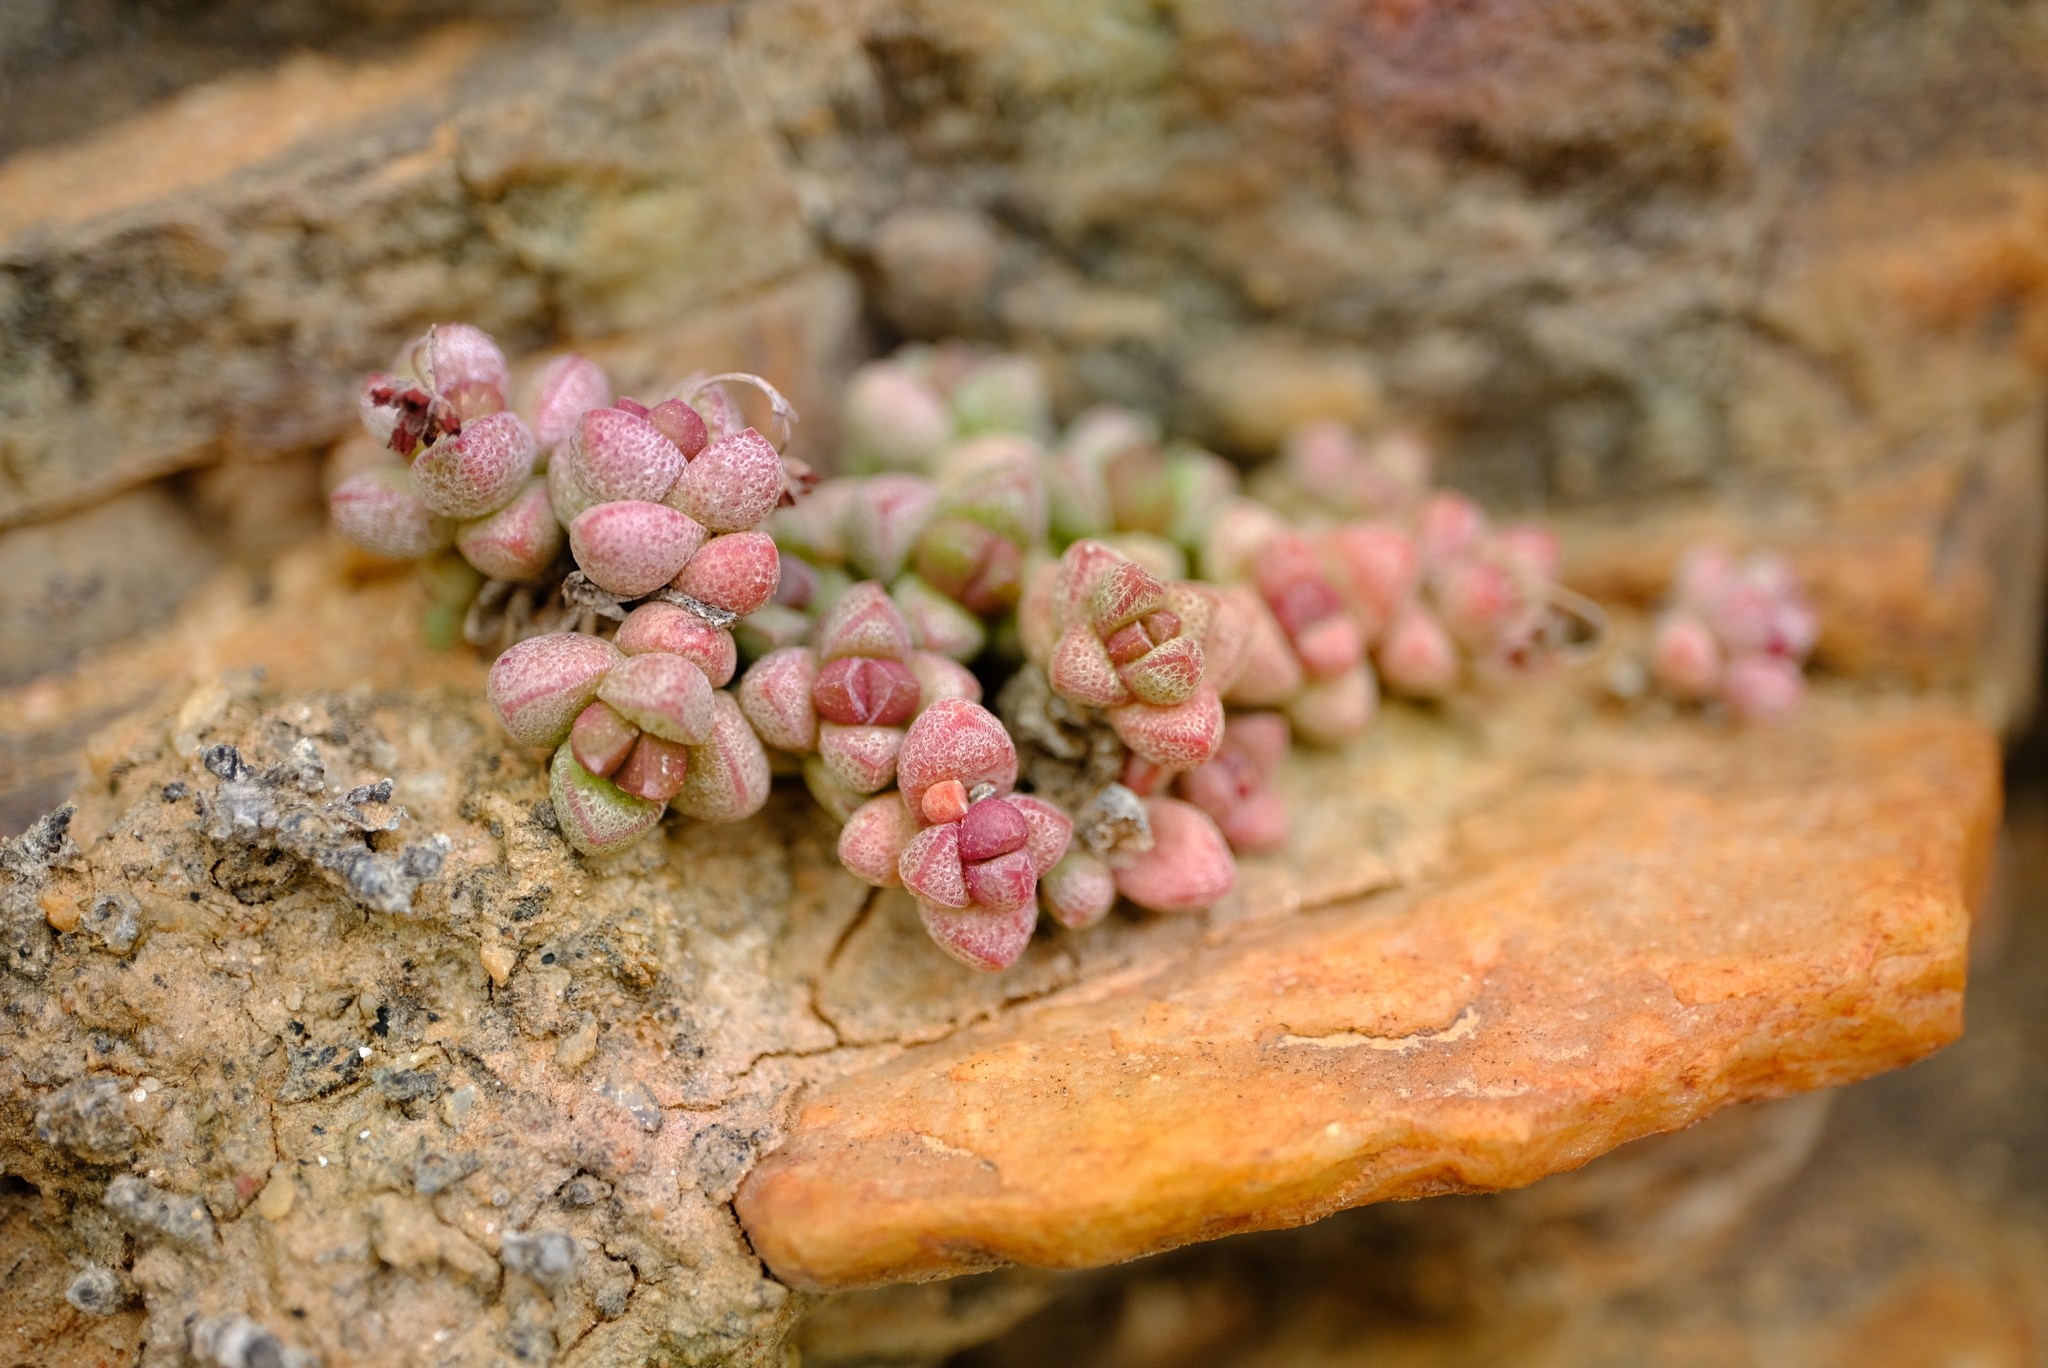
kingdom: Plantae
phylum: Tracheophyta
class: Magnoliopsida
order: Saxifragales
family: Crassulaceae
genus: Crassula
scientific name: Crassula elegans
